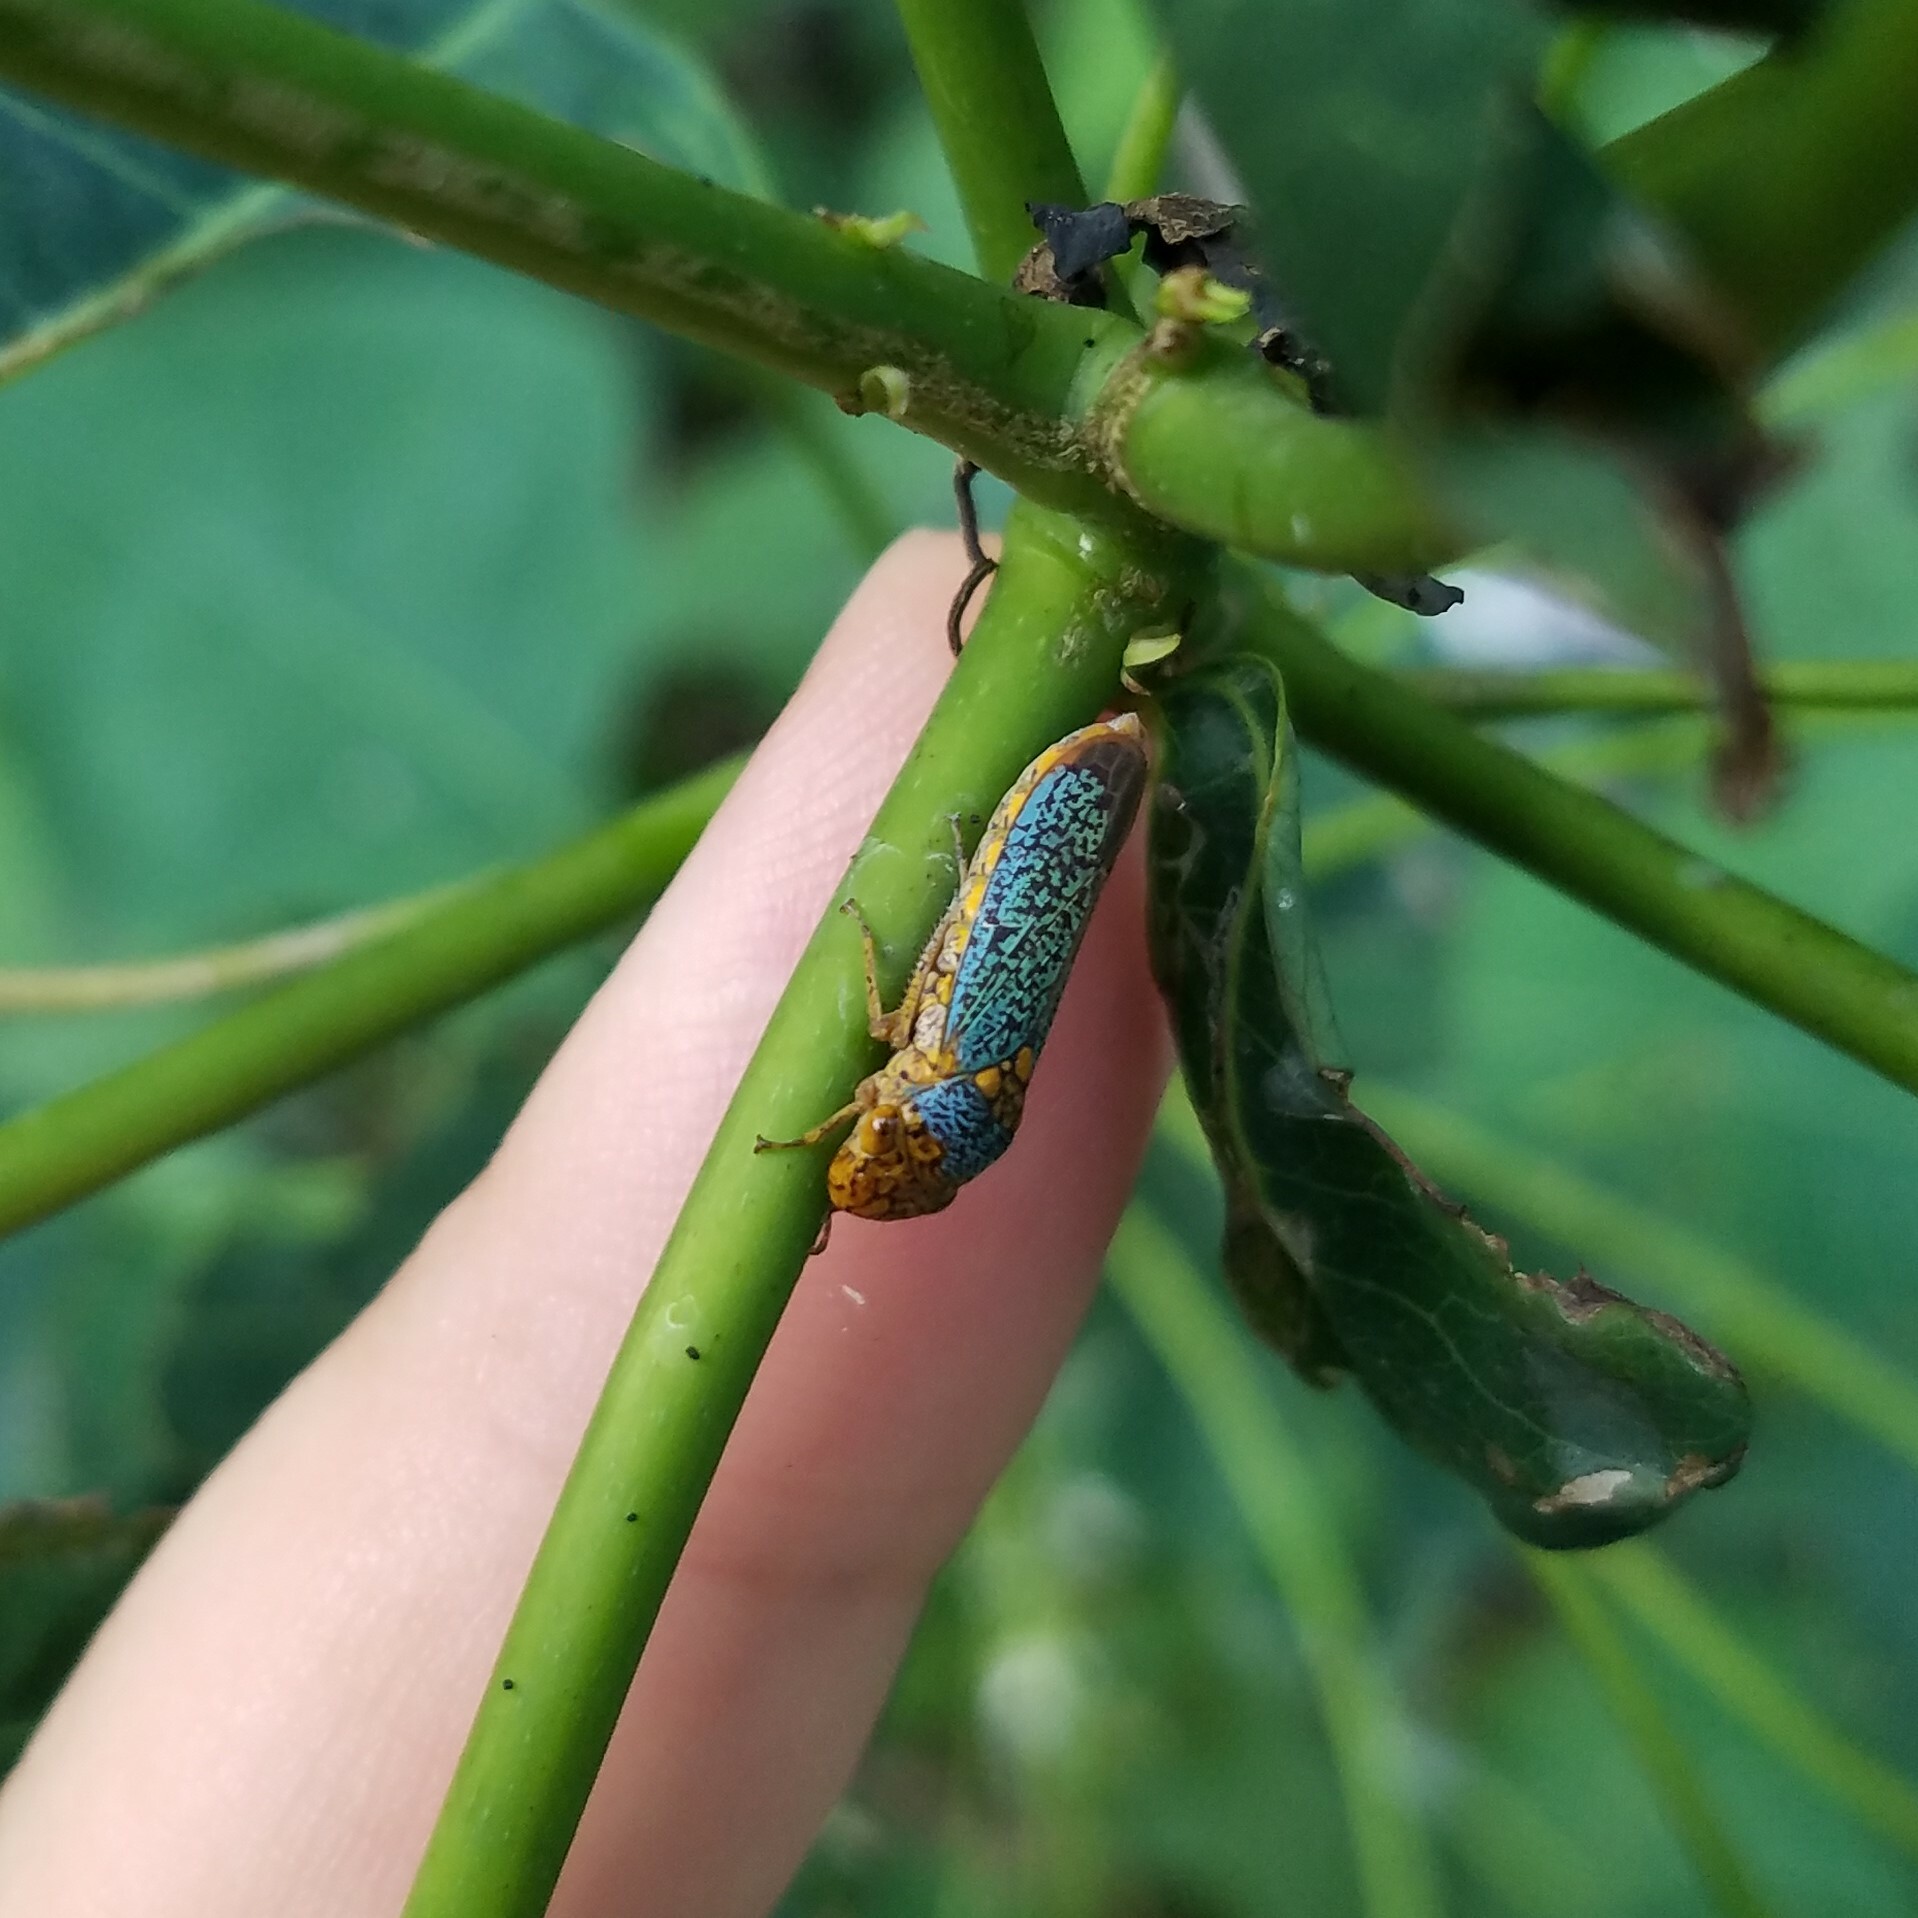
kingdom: Animalia
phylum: Arthropoda
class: Insecta
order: Hemiptera
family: Cicadellidae
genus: Oncometopia
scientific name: Oncometopia orbona
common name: Broad-headed sharpshooter
